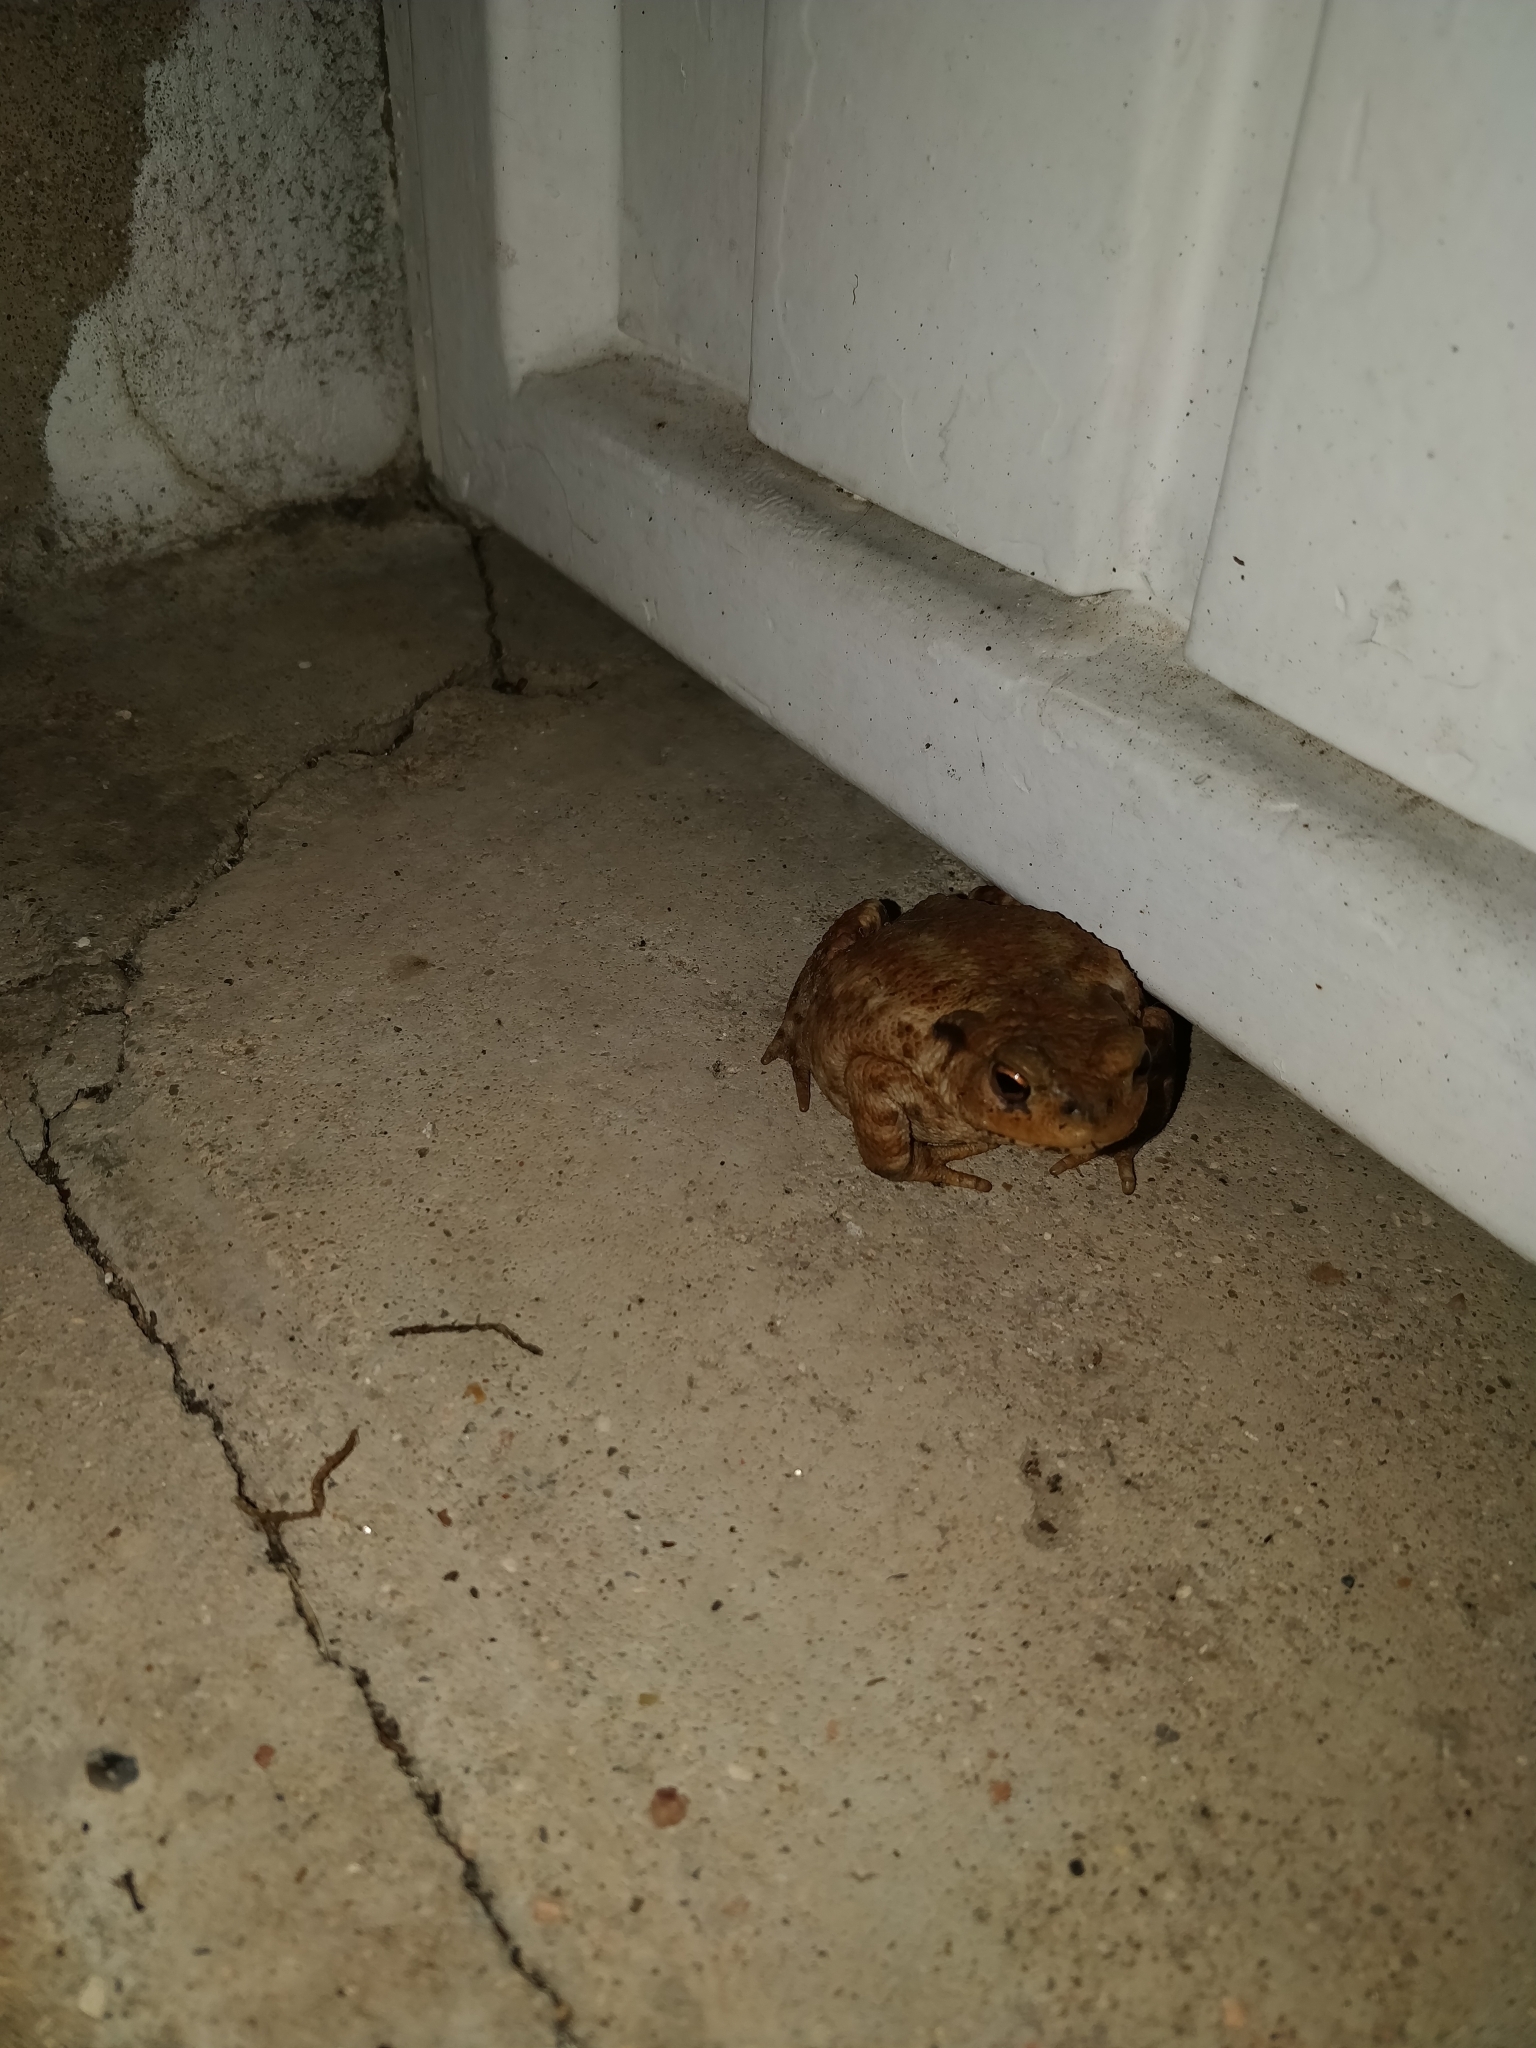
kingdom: Animalia
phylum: Chordata
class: Amphibia
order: Anura
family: Bufonidae
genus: Bufo
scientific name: Bufo bufo
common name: Common toad
